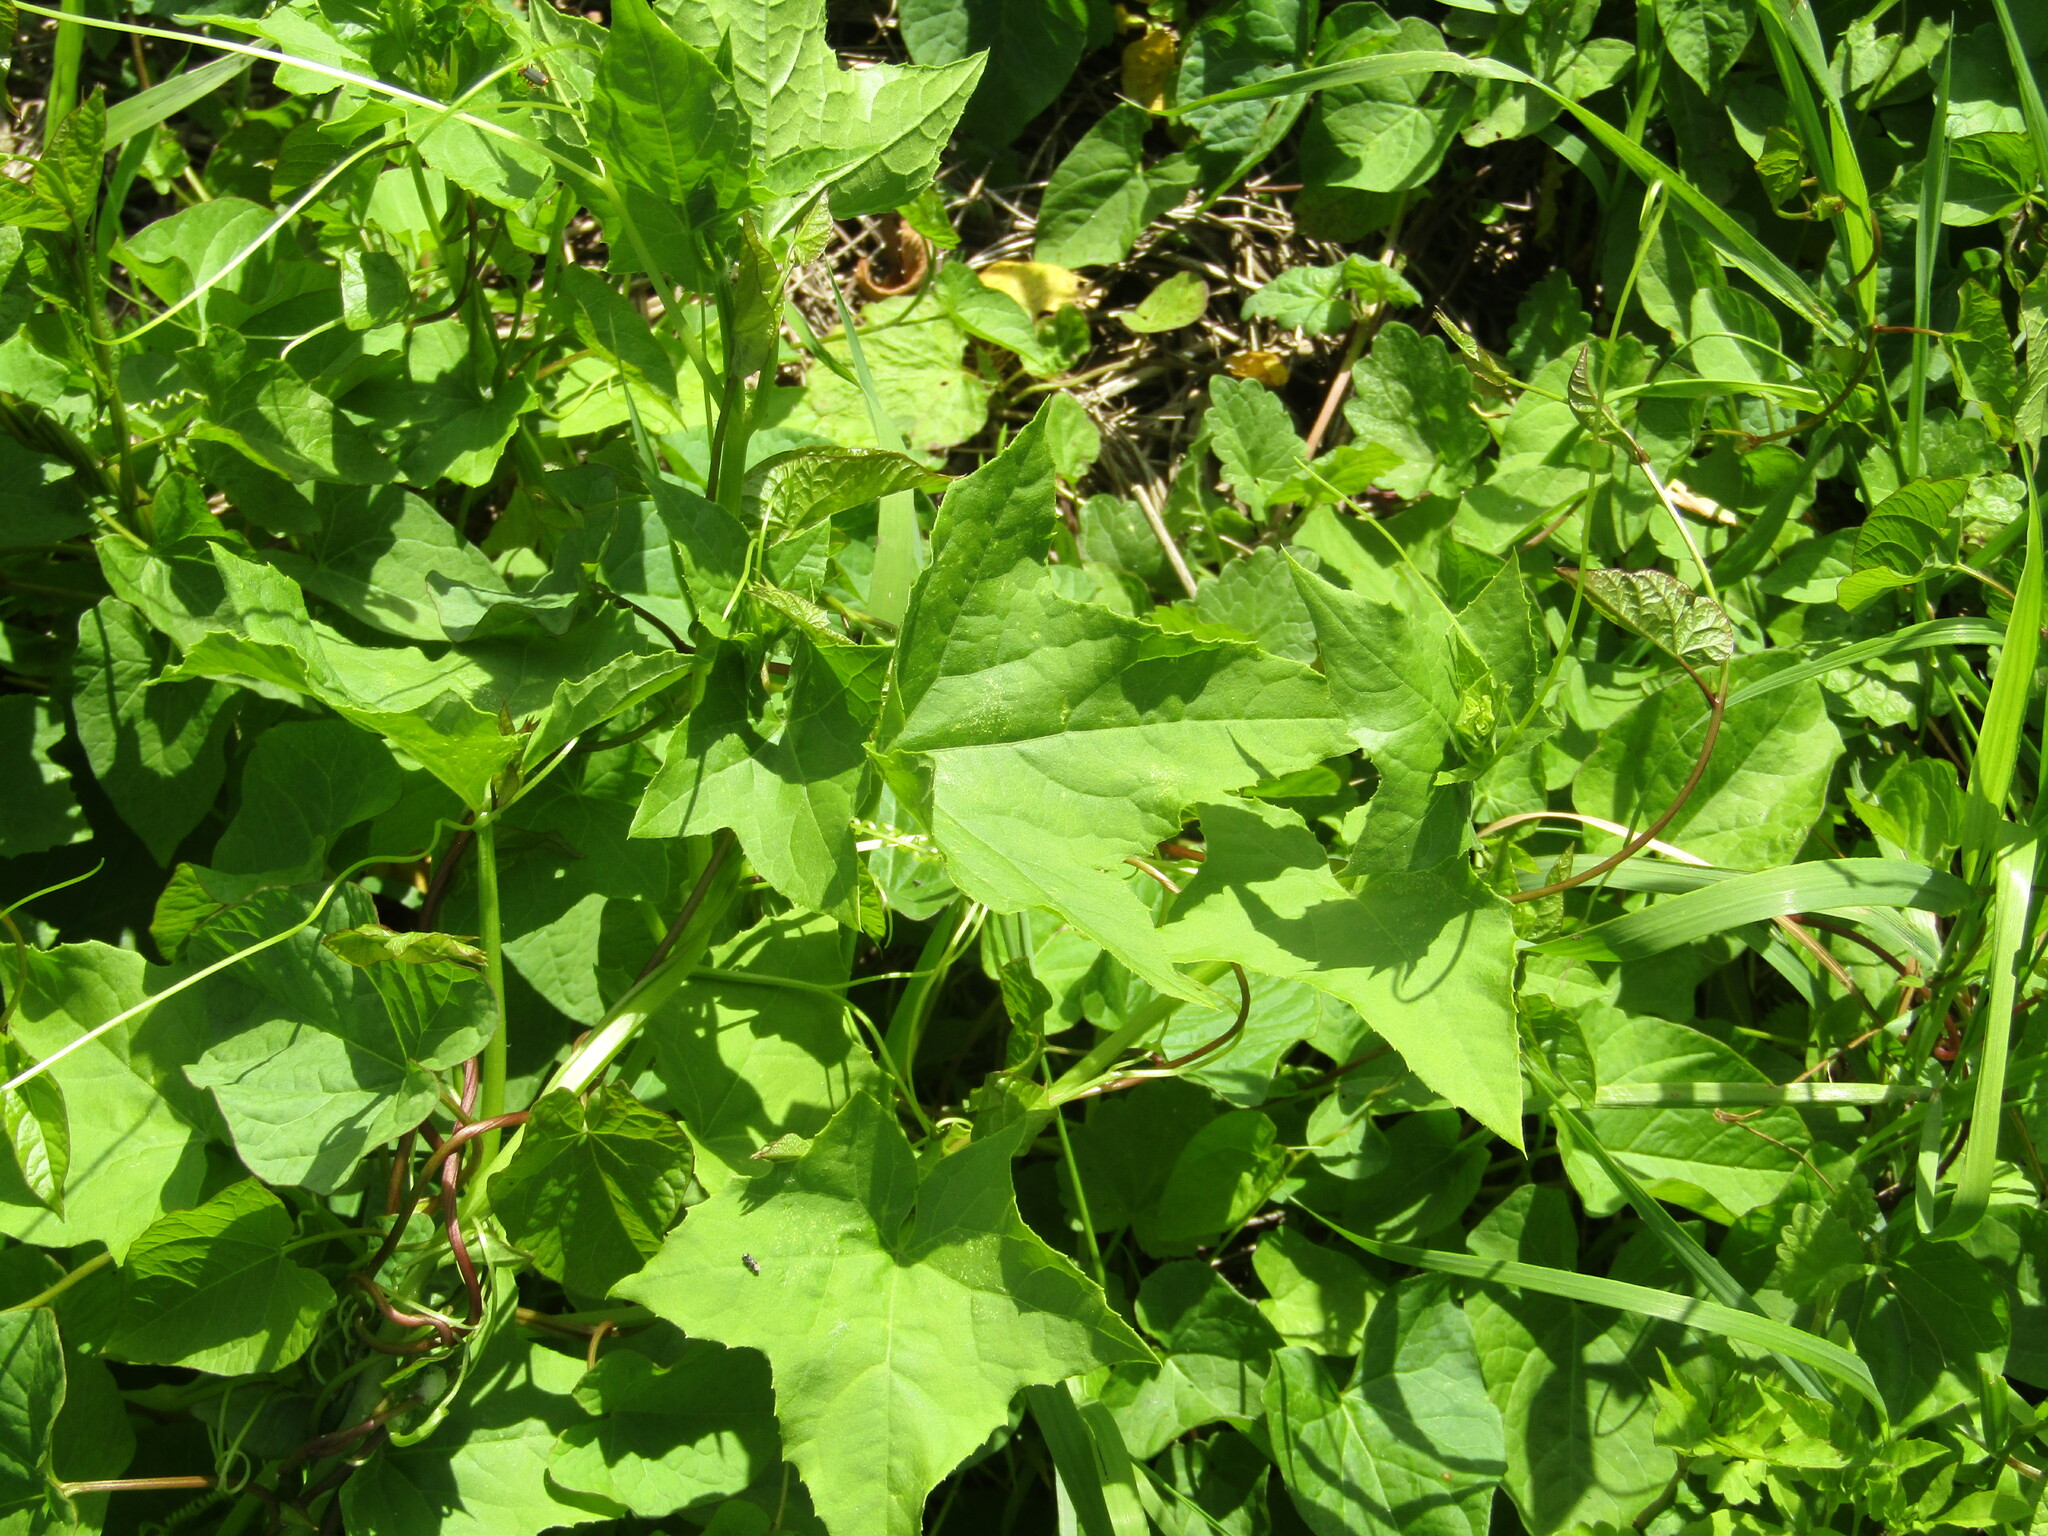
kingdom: Plantae
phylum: Tracheophyta
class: Magnoliopsida
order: Cucurbitales
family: Cucurbitaceae
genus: Echinocystis
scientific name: Echinocystis lobata
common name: Wild cucumber
